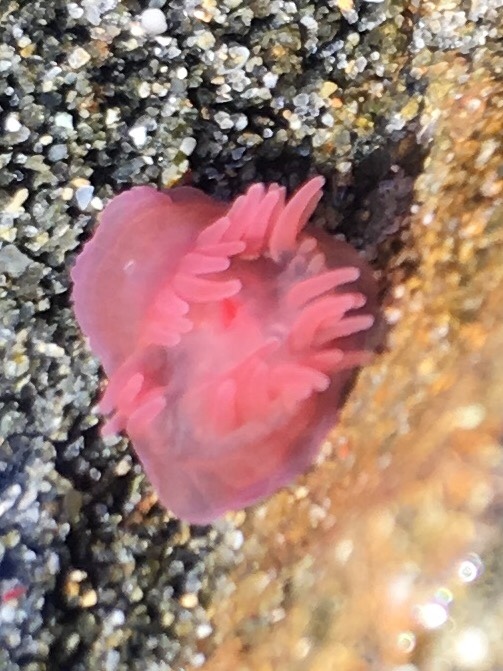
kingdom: Animalia
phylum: Cnidaria
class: Anthozoa
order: Actiniaria
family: Actiniidae
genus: Actinia
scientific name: Actinia tenebrosa
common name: Waratah anemone
